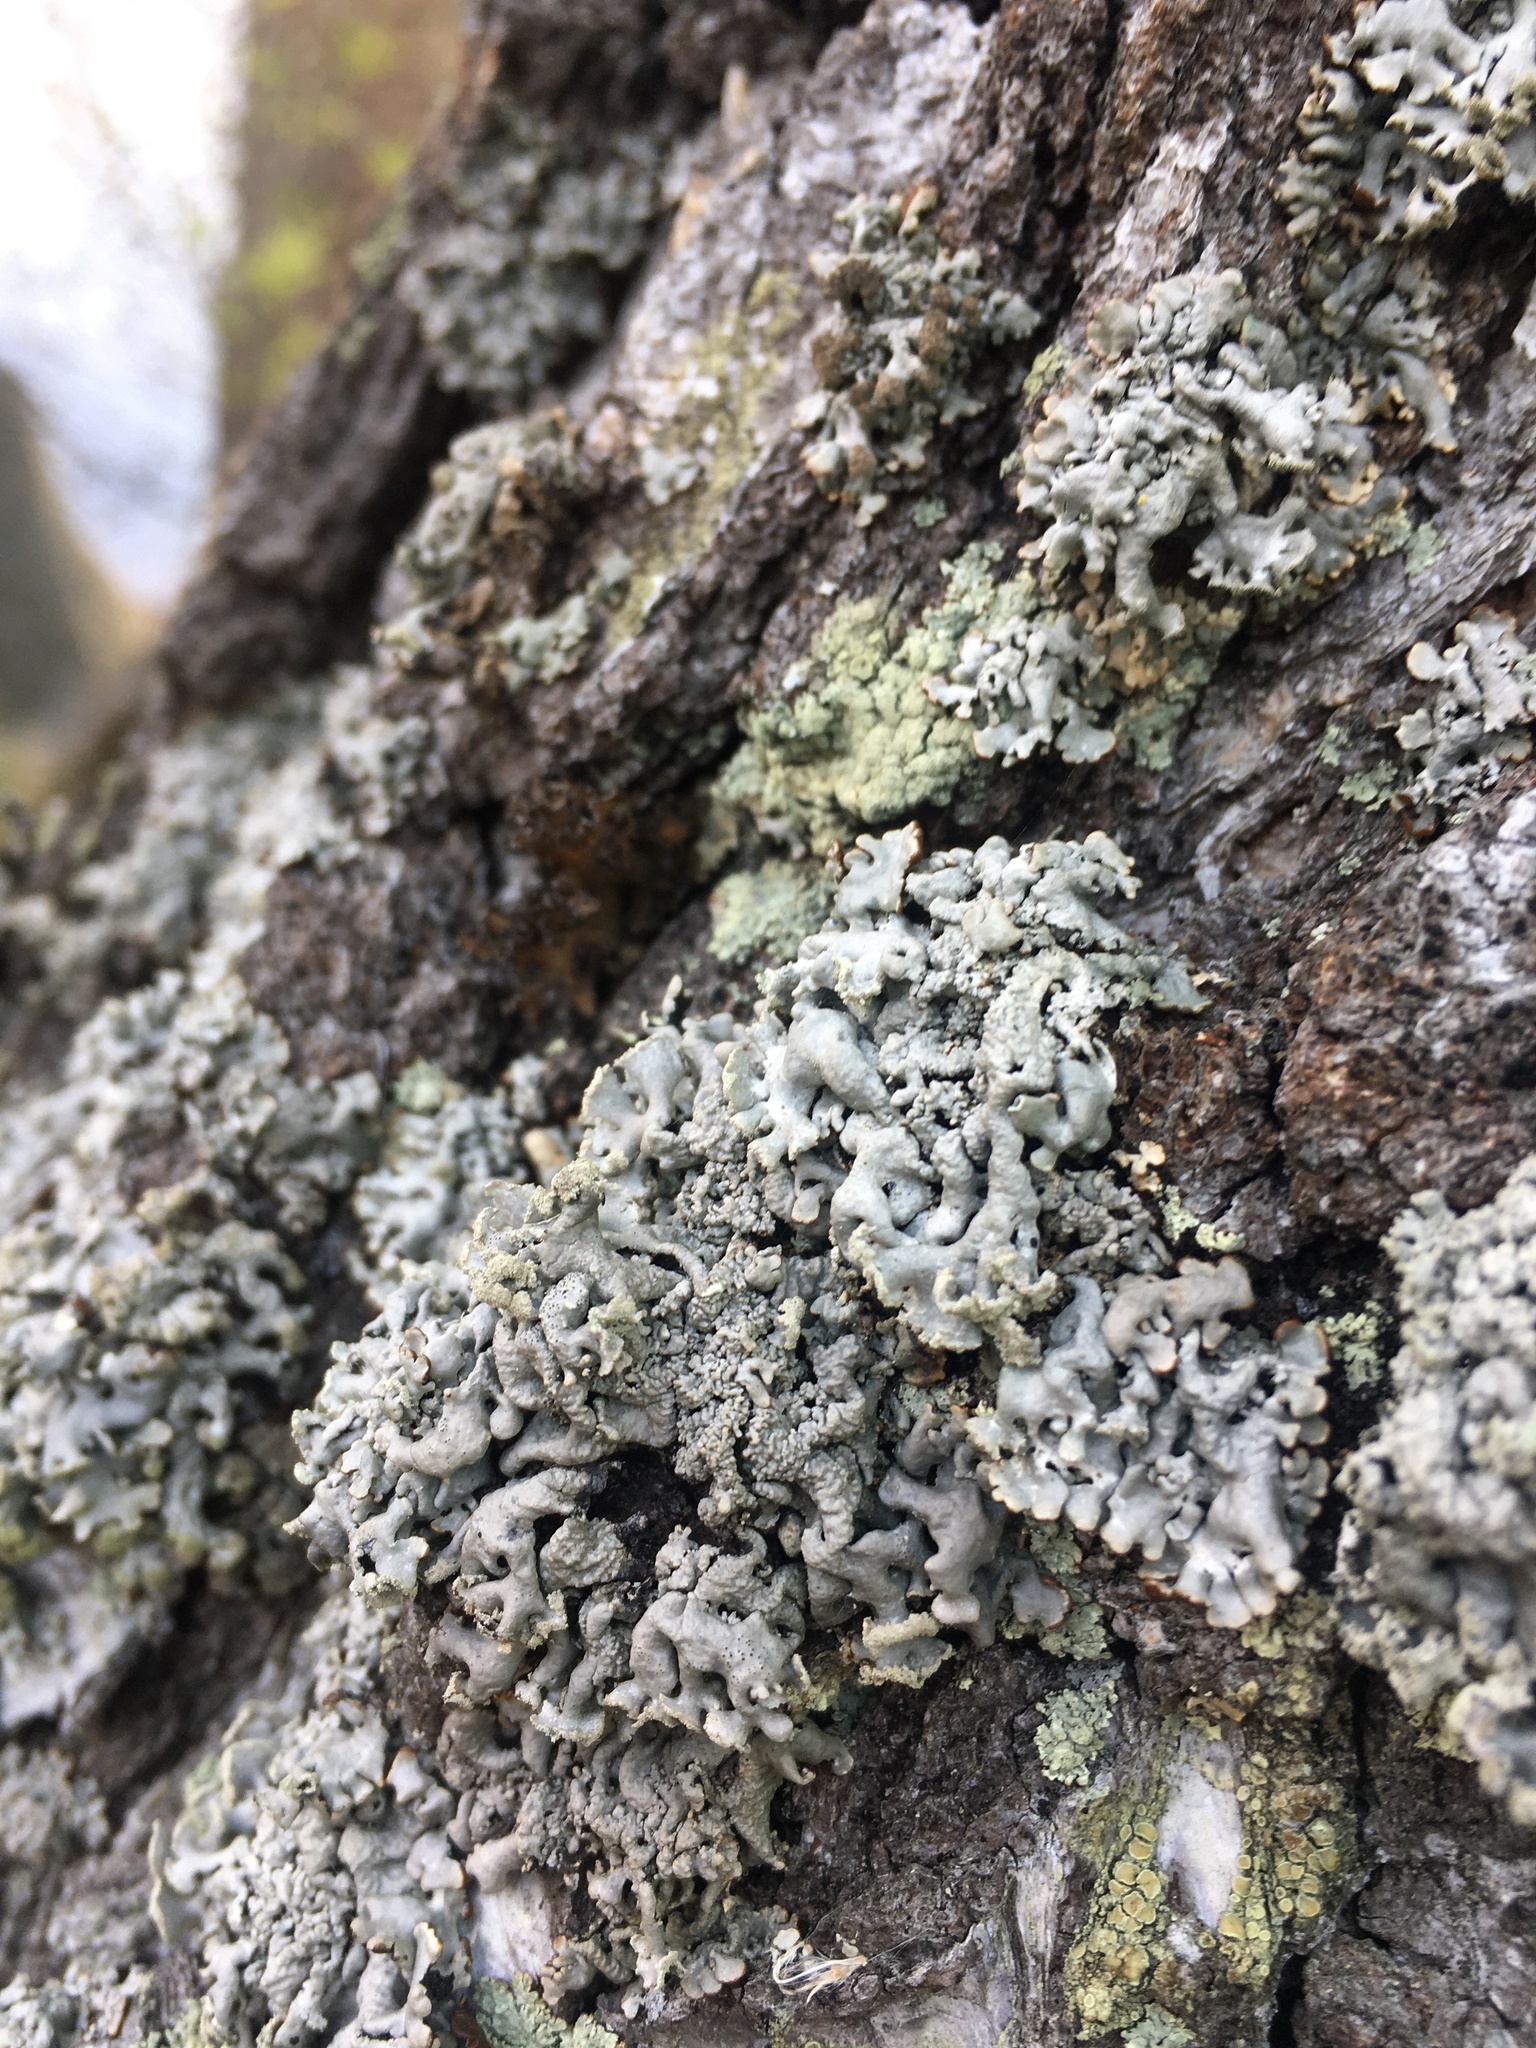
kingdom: Fungi
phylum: Ascomycota
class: Lecanoromycetes
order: Lecanorales
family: Parmeliaceae
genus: Hypogymnia
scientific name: Hypogymnia physodes
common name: Dark crottle
